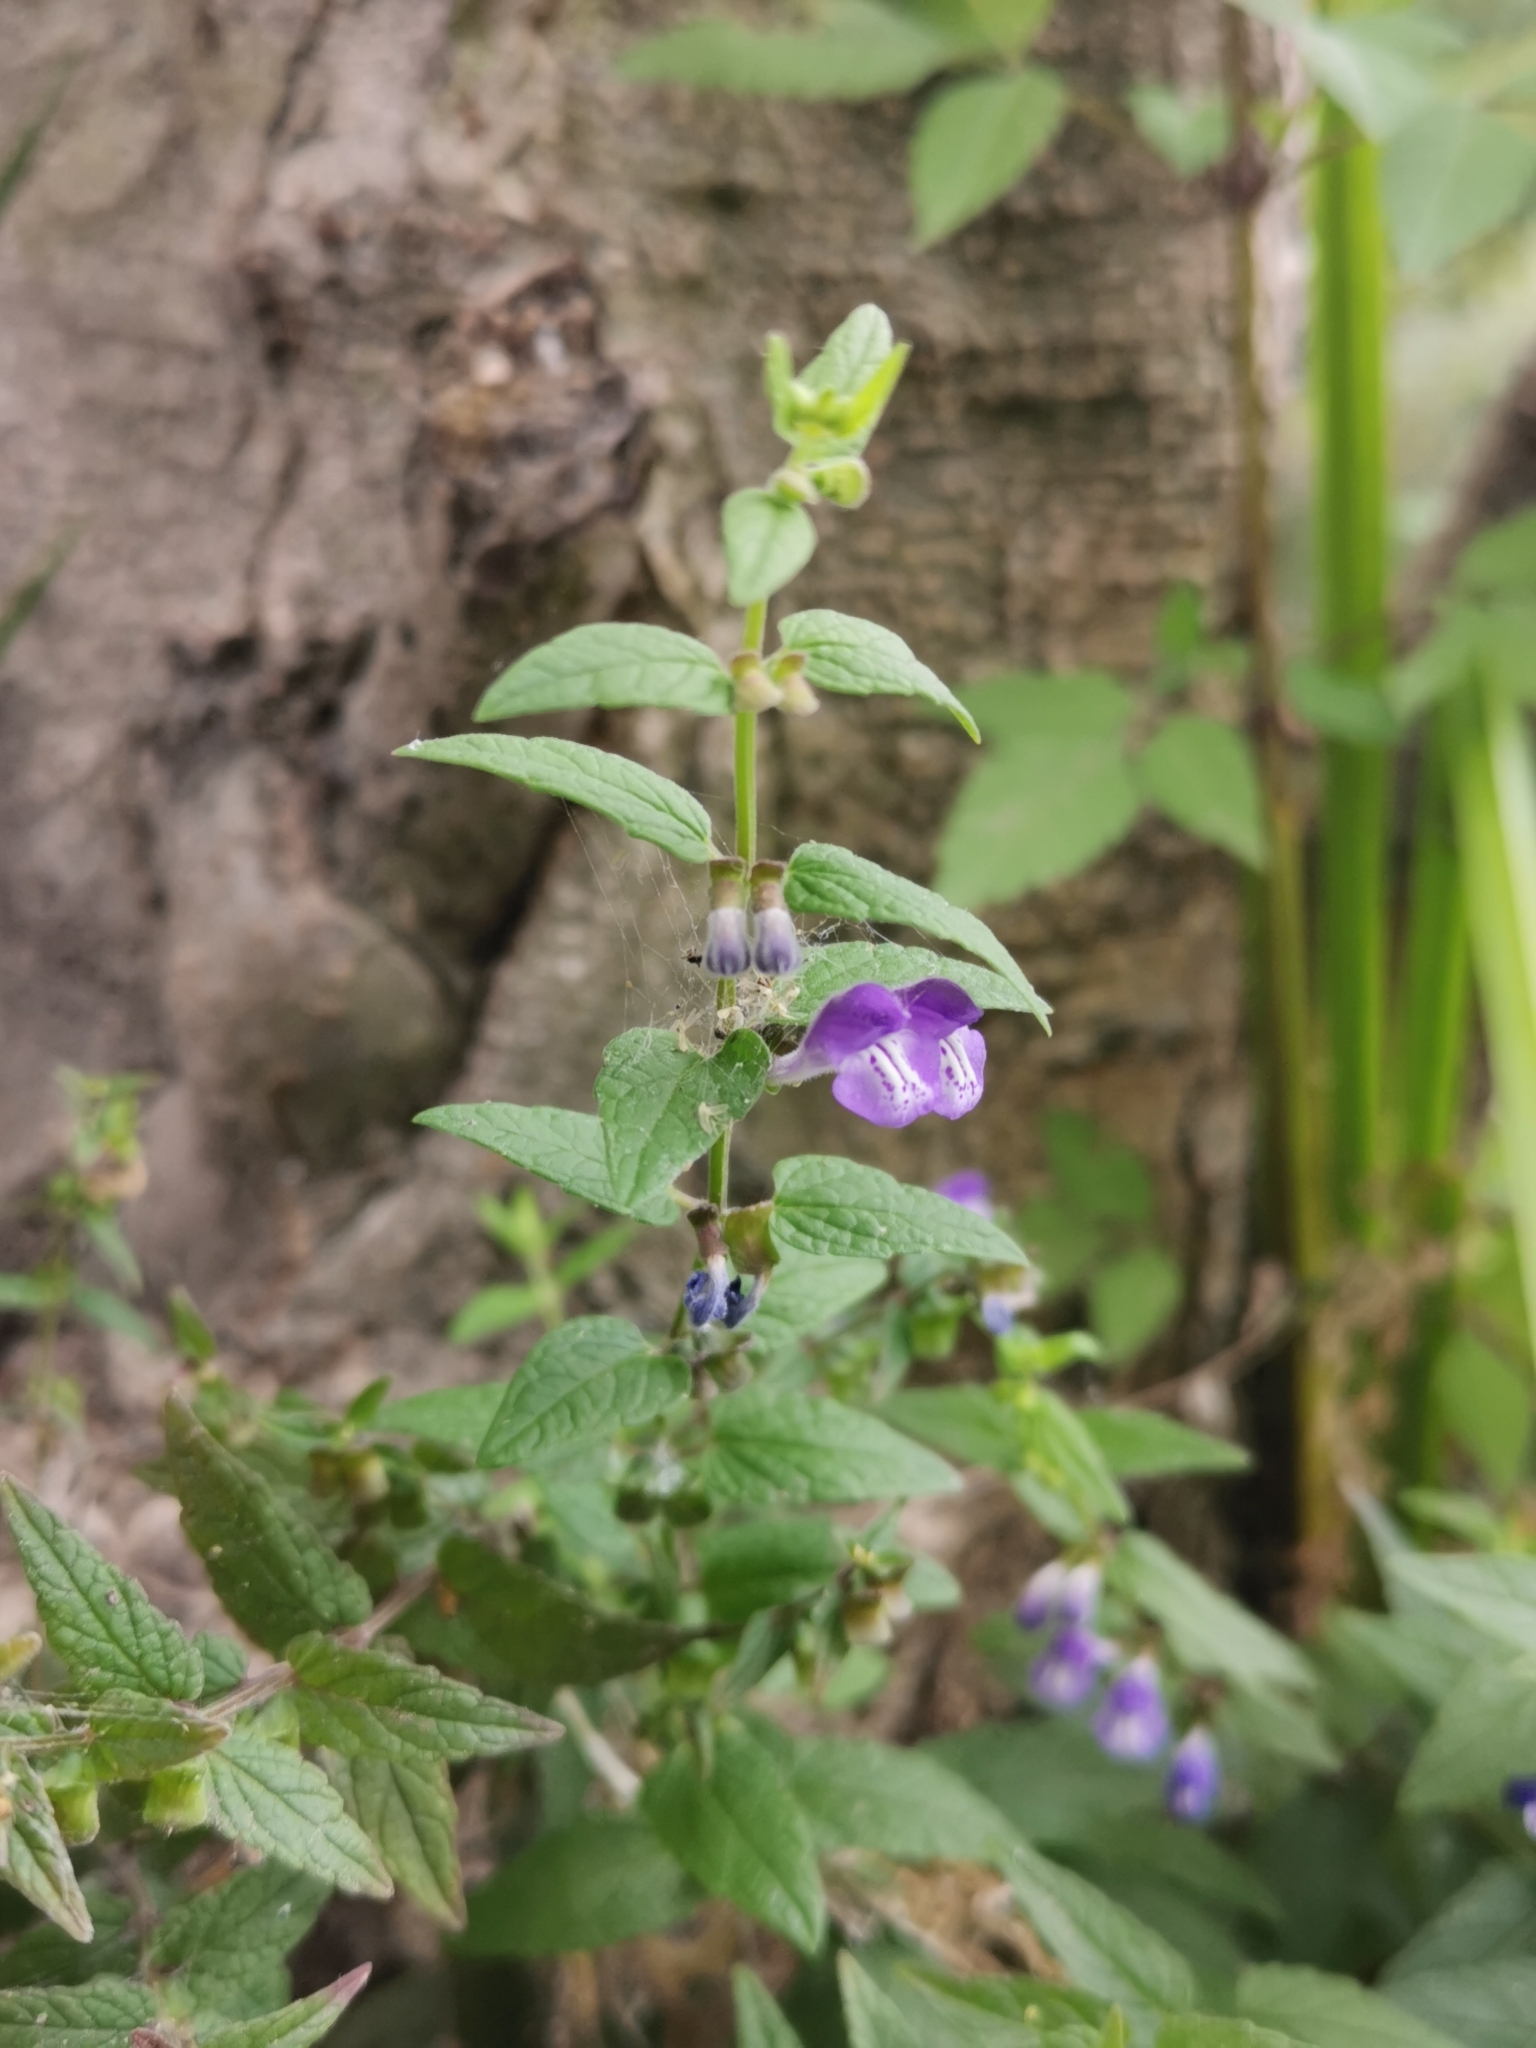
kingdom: Plantae
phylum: Tracheophyta
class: Magnoliopsida
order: Lamiales
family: Lamiaceae
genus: Scutellaria
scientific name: Scutellaria galericulata
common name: Skullcap
